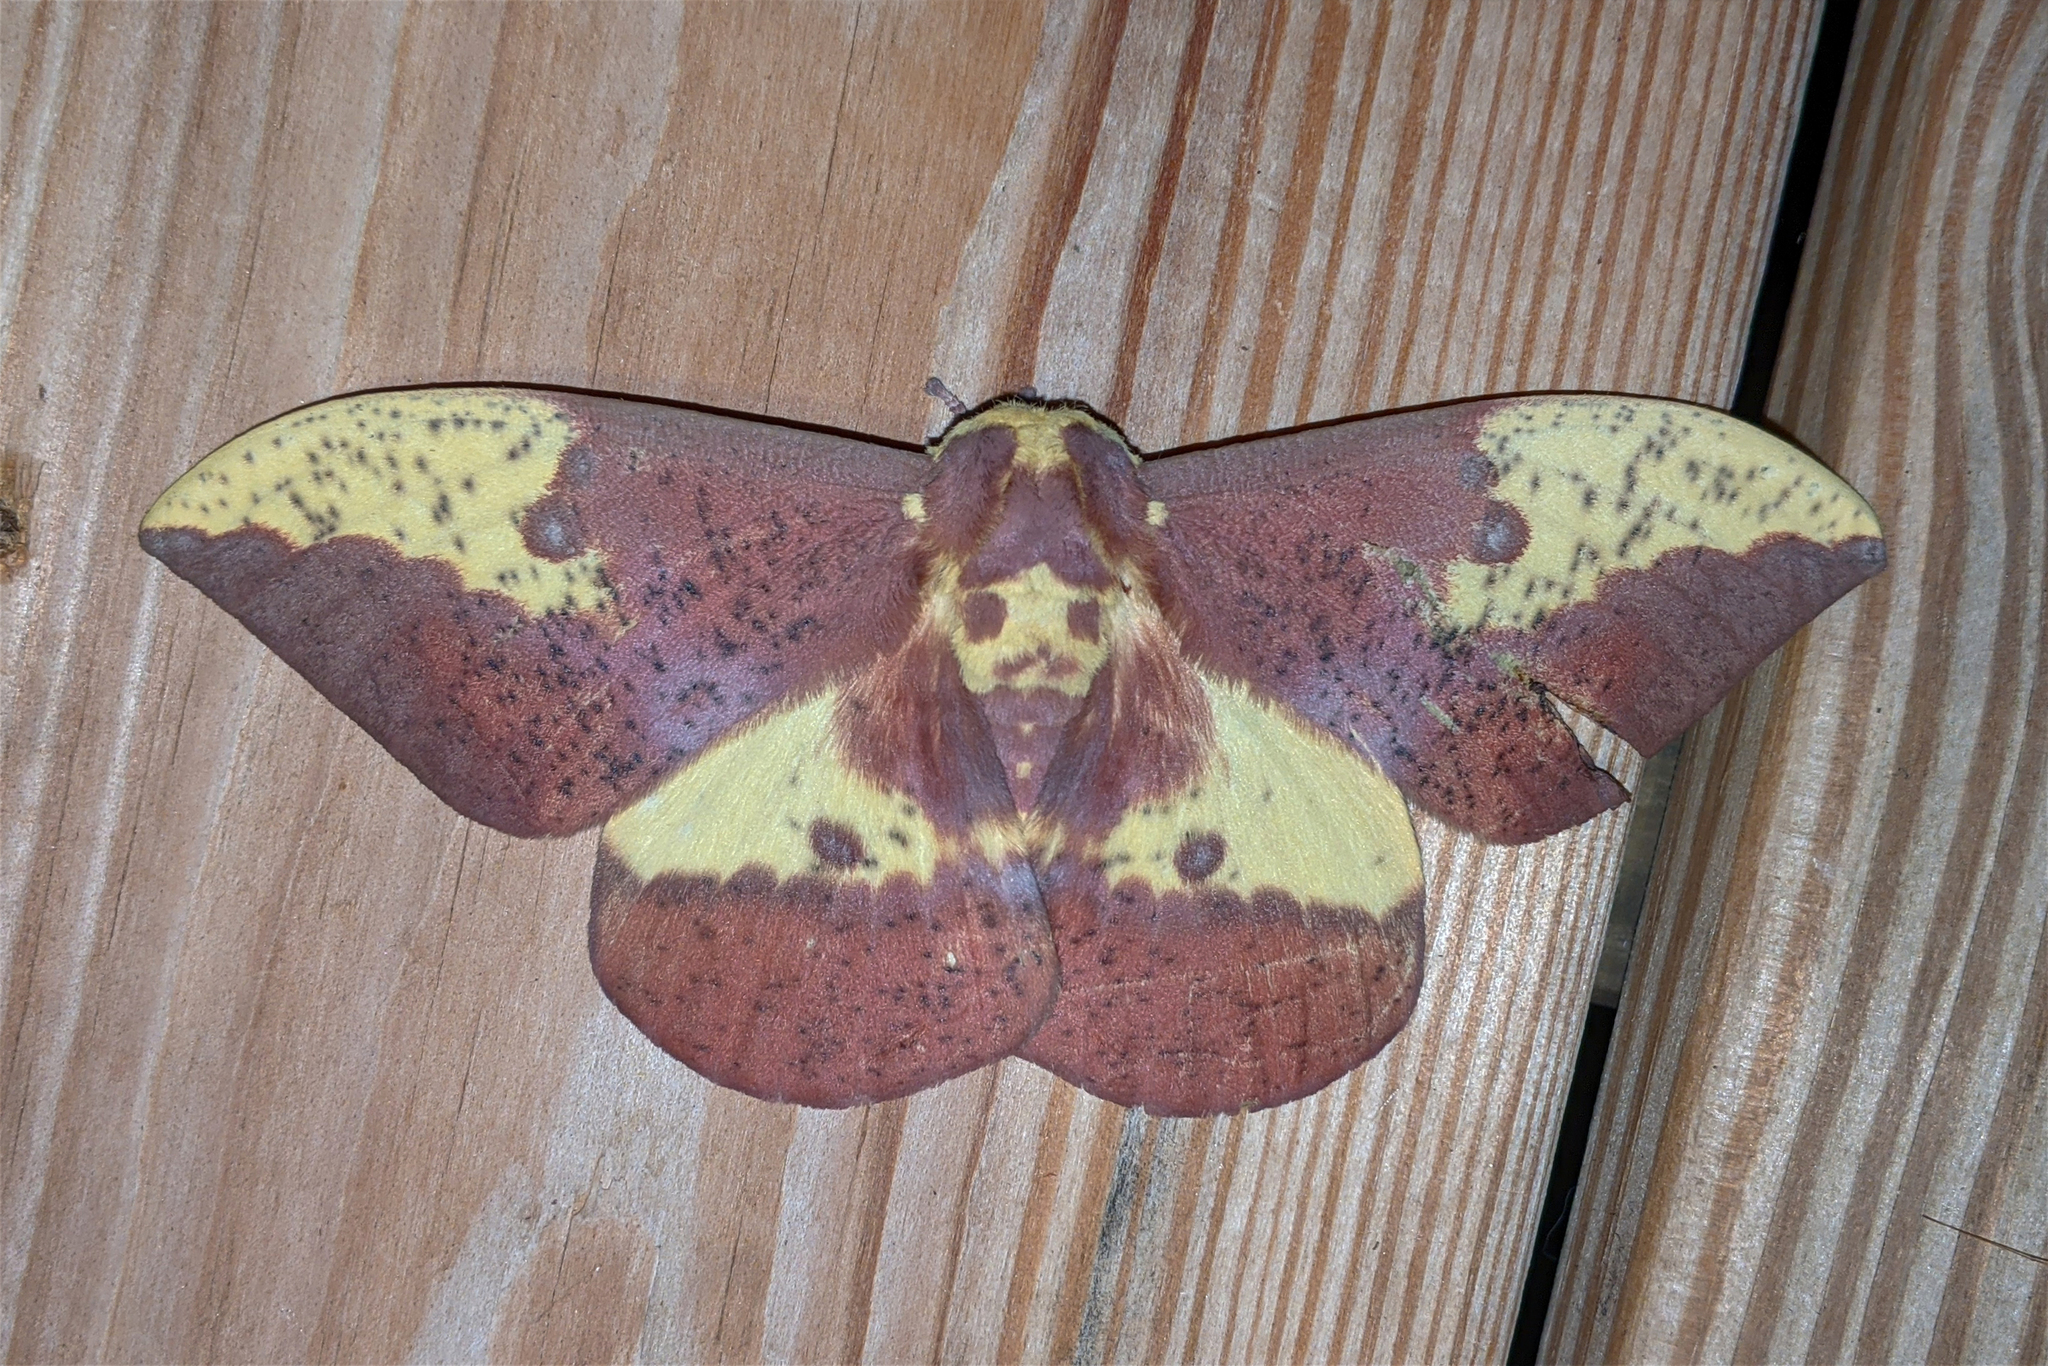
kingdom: Animalia
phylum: Arthropoda
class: Insecta
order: Lepidoptera
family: Saturniidae
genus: Eacles
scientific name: Eacles imperialis
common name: Imperial moth
